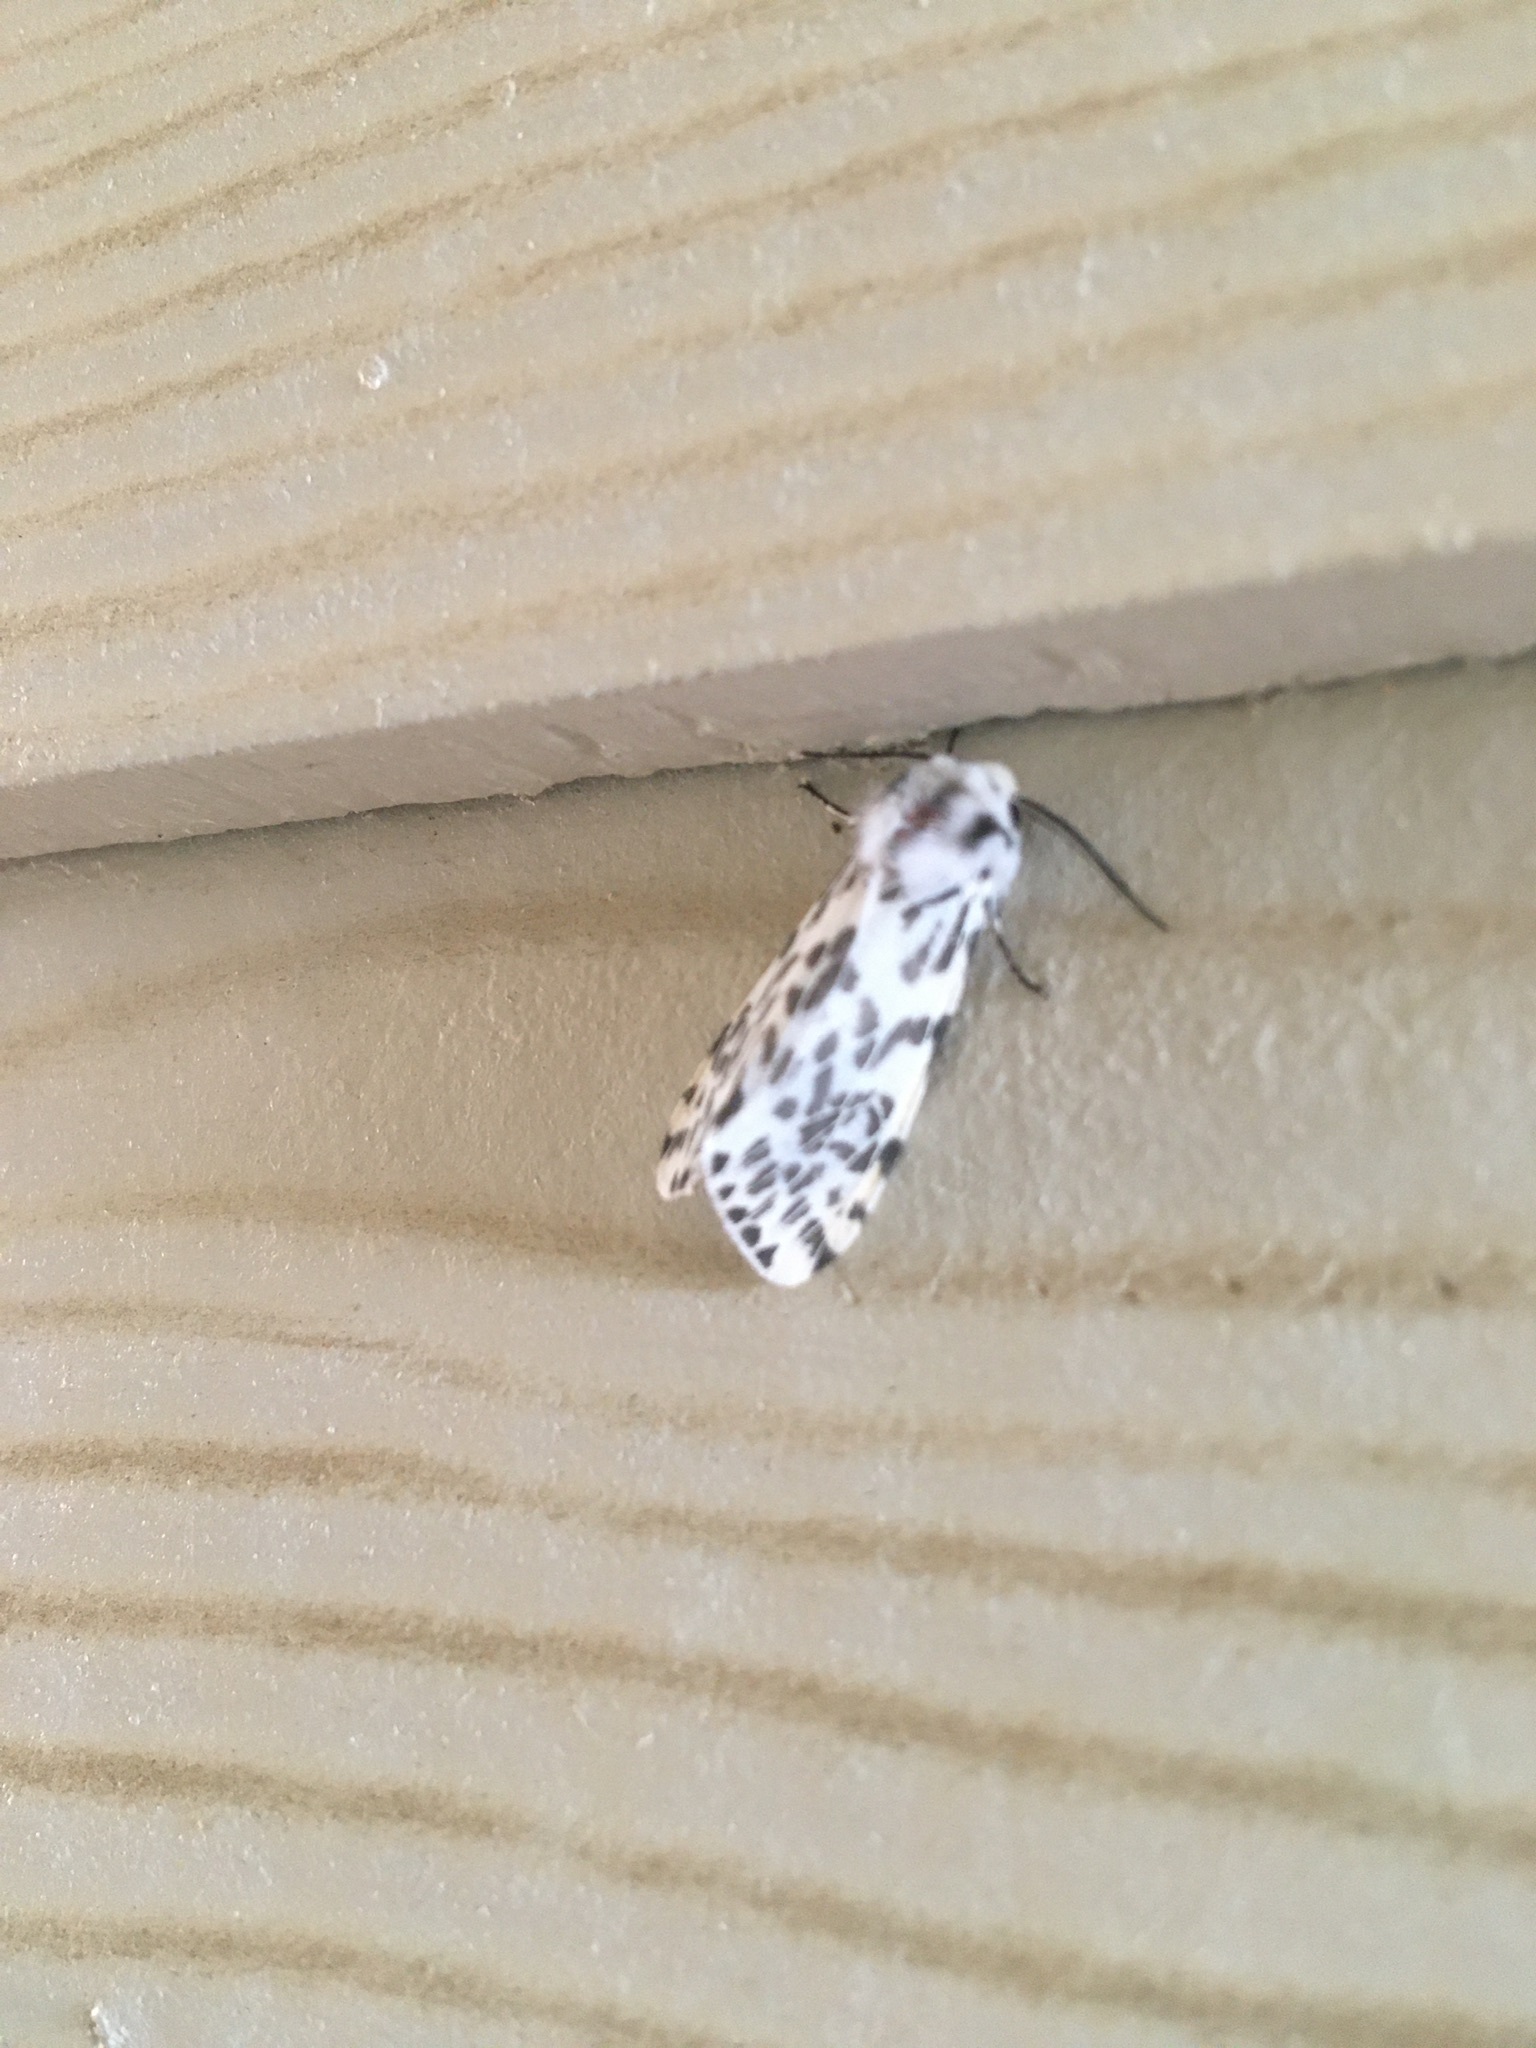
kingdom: Animalia
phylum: Arthropoda
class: Insecta
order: Lepidoptera
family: Erebidae
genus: Hyphantria
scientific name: Hyphantria cunea
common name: American white moth
